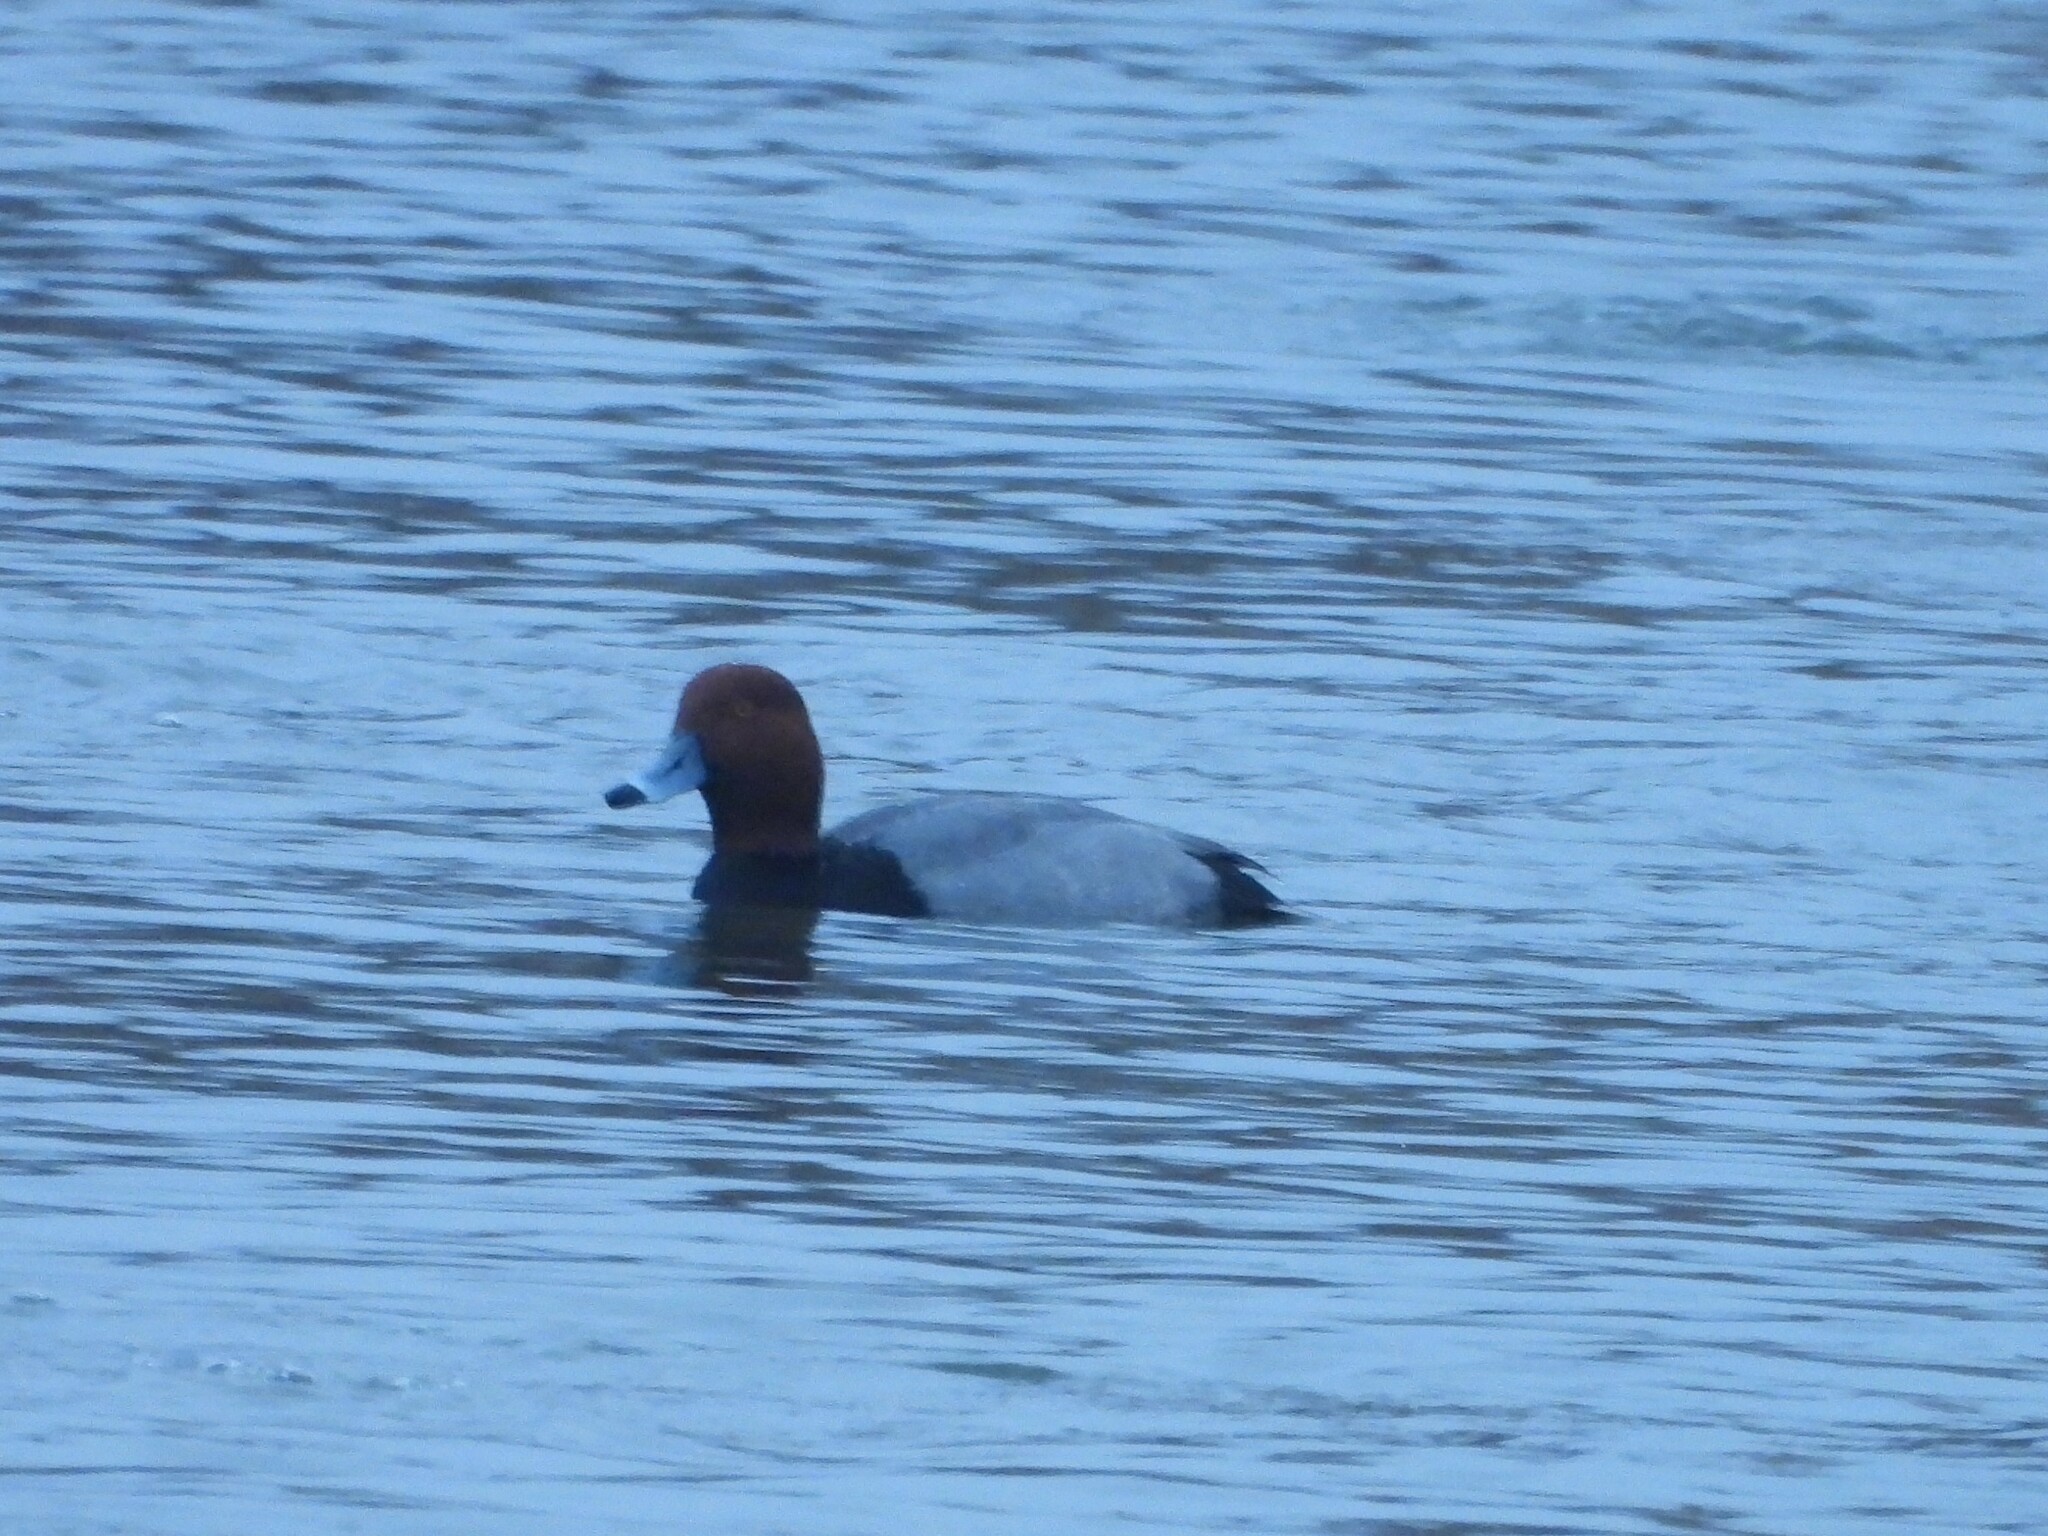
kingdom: Animalia
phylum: Chordata
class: Aves
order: Anseriformes
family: Anatidae
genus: Aythya
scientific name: Aythya americana
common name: Redhead
